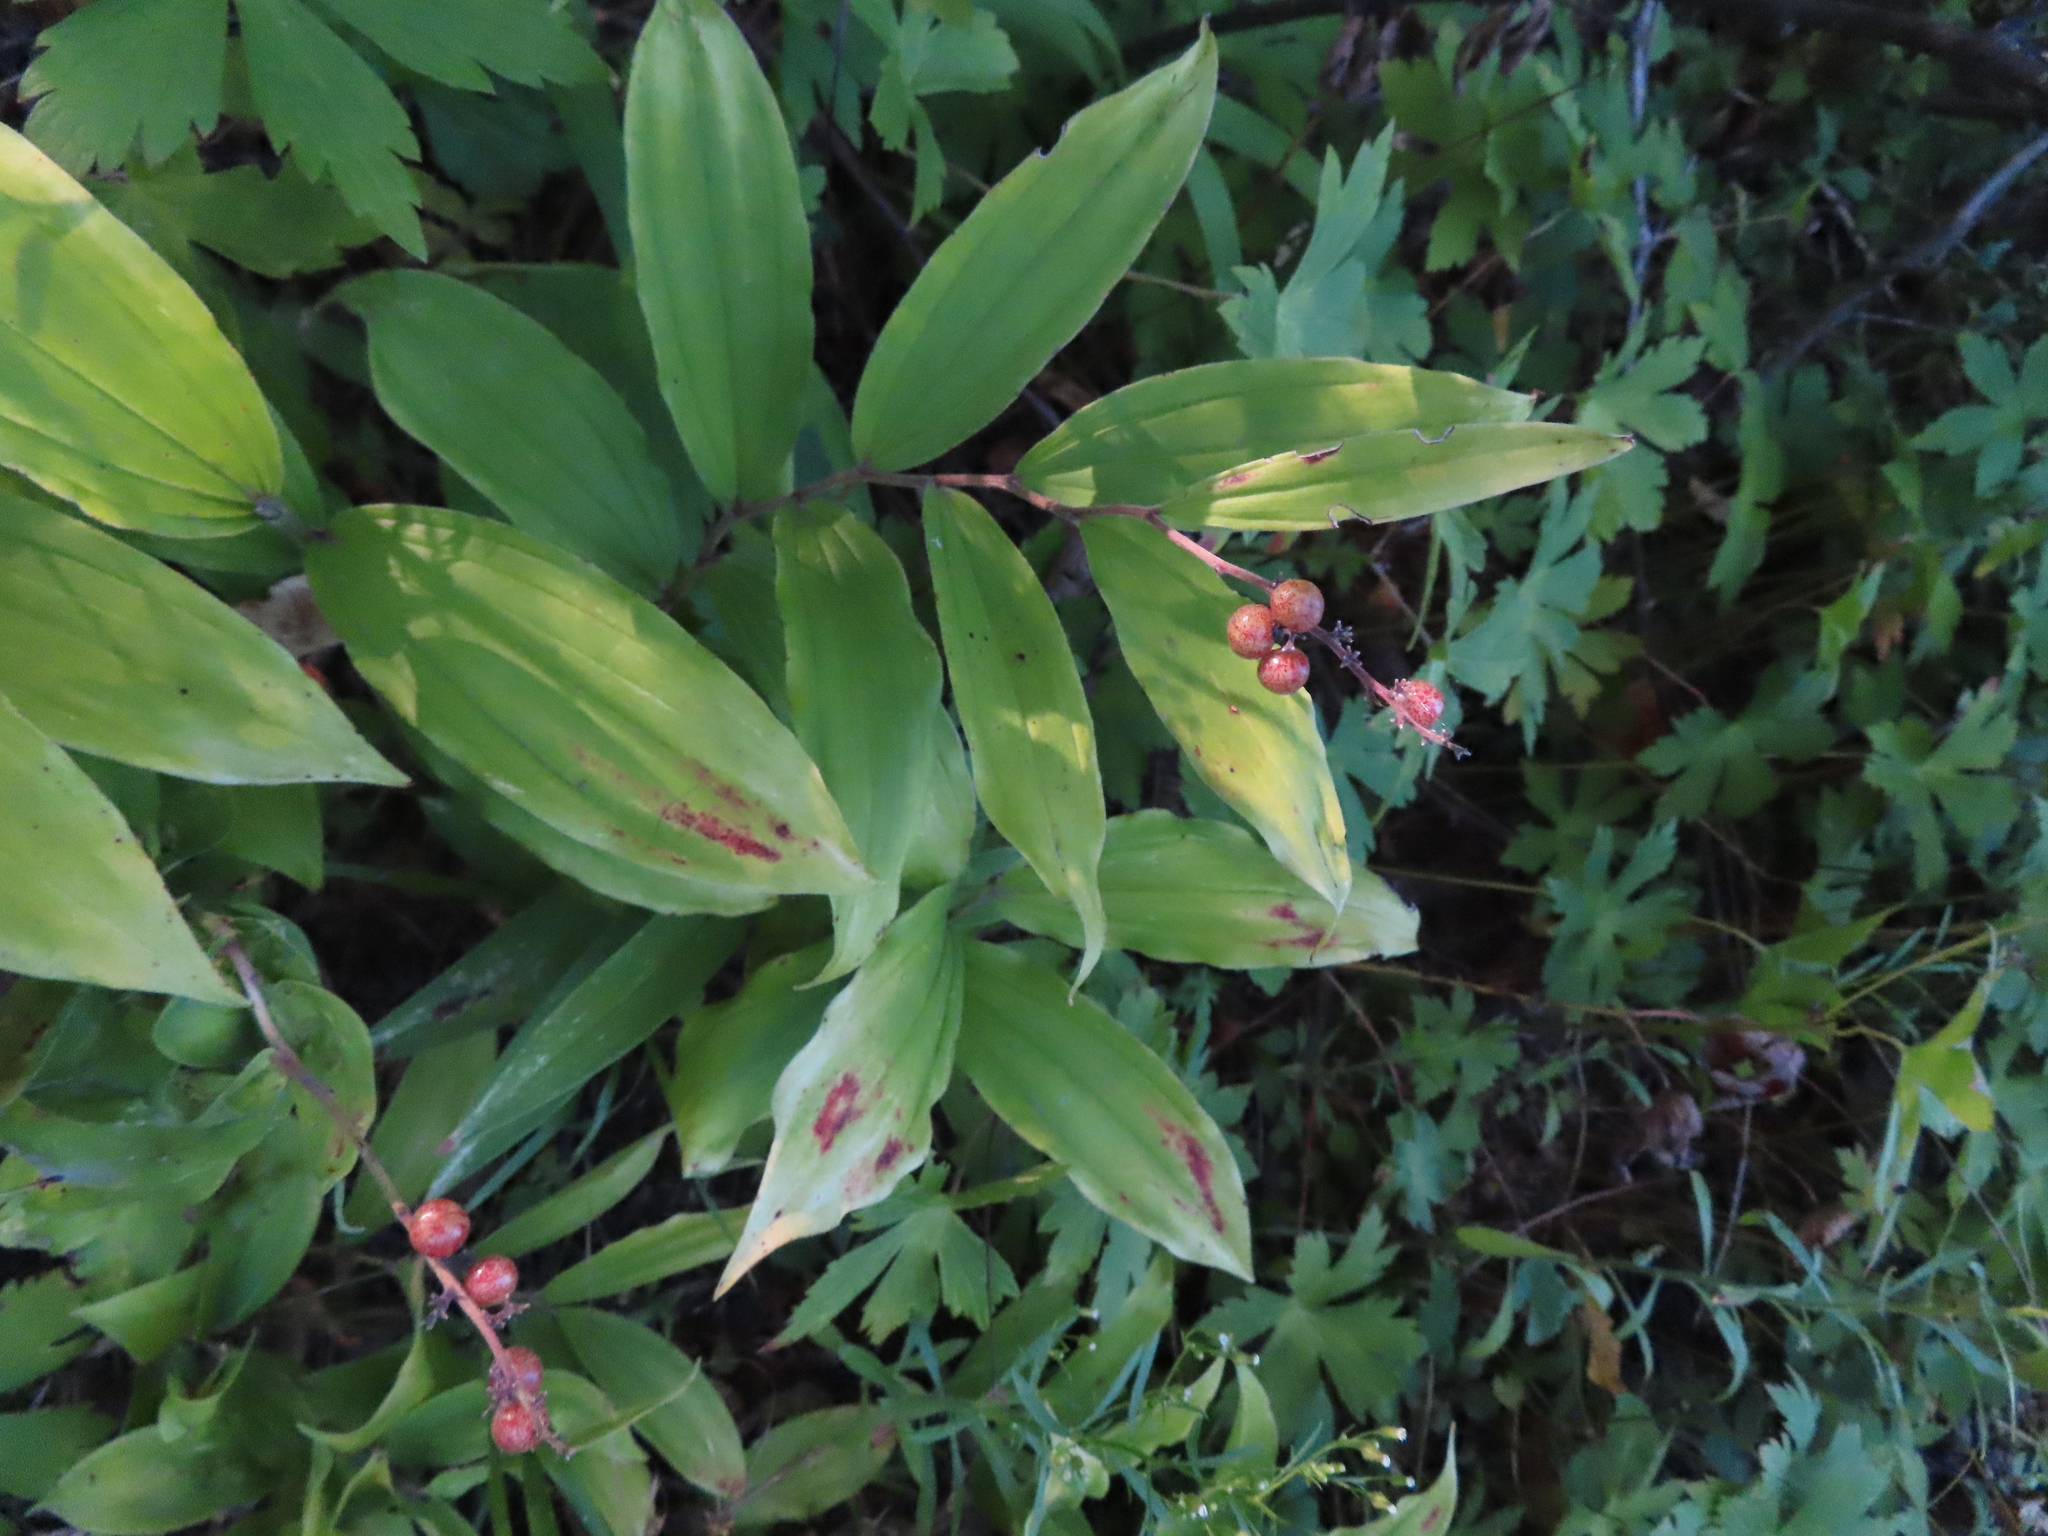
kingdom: Plantae
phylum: Tracheophyta
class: Liliopsida
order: Asparagales
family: Asparagaceae
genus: Maianthemum
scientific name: Maianthemum racemosum
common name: False spikenard
